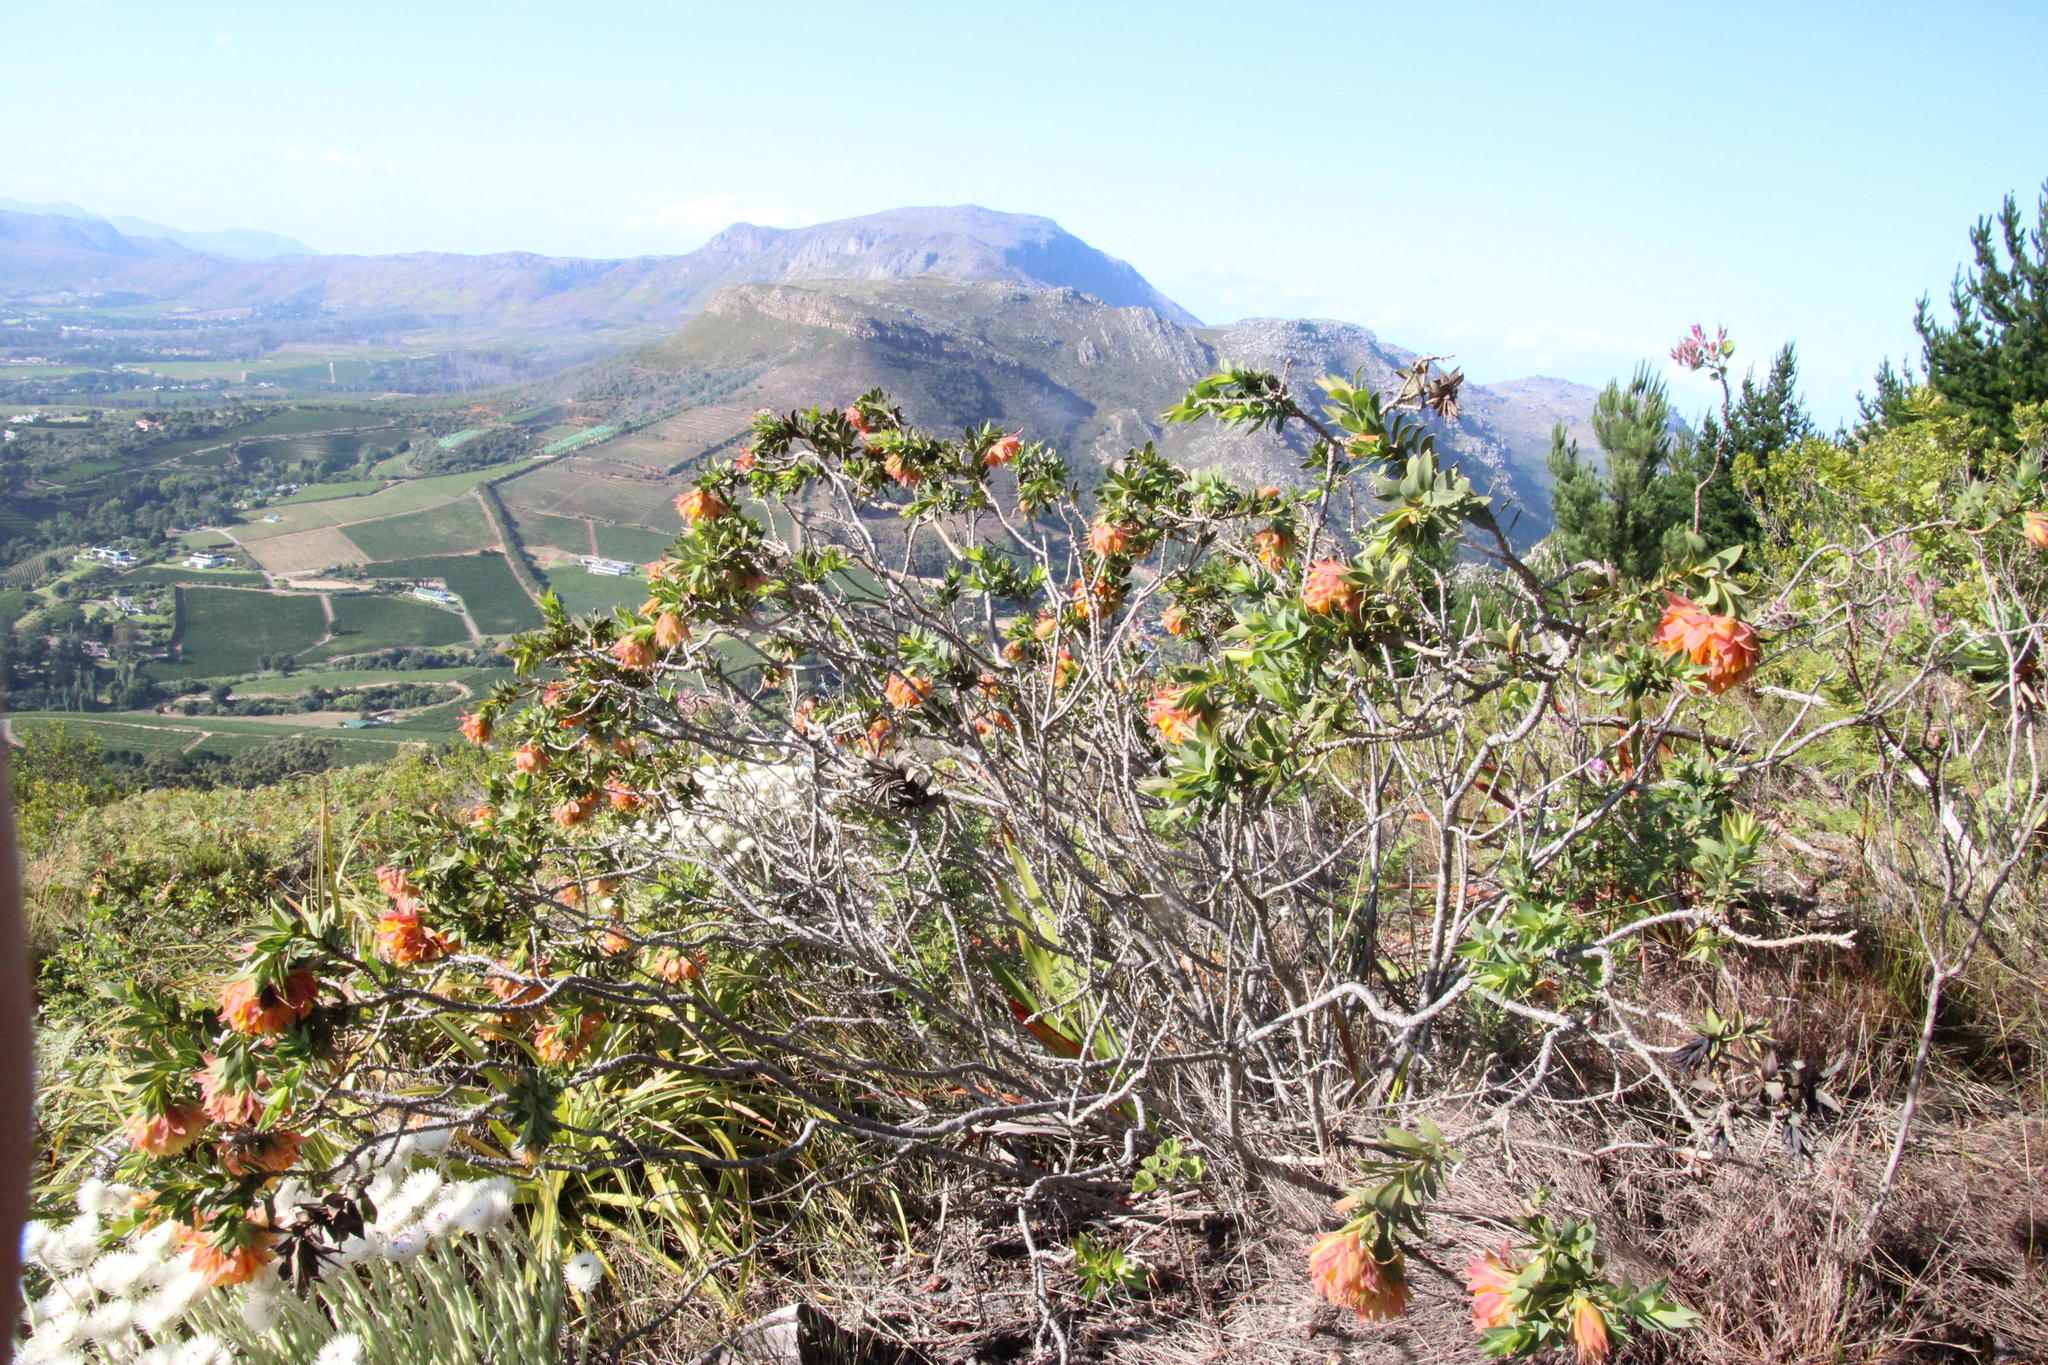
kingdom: Plantae
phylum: Tracheophyta
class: Magnoliopsida
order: Fabales
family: Fabaceae
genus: Liparia
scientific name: Liparia splendens
